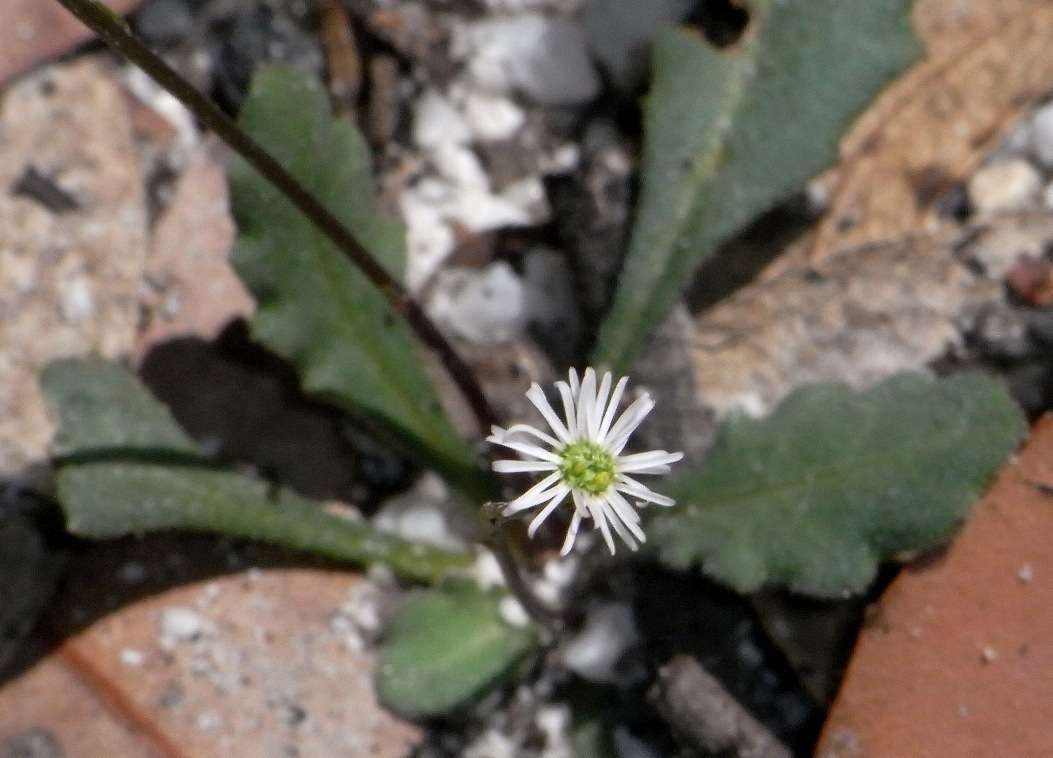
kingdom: Plantae
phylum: Tracheophyta
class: Magnoliopsida
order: Asterales
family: Asteraceae
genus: Lagenophora
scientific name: Lagenophora sublyrata ter
